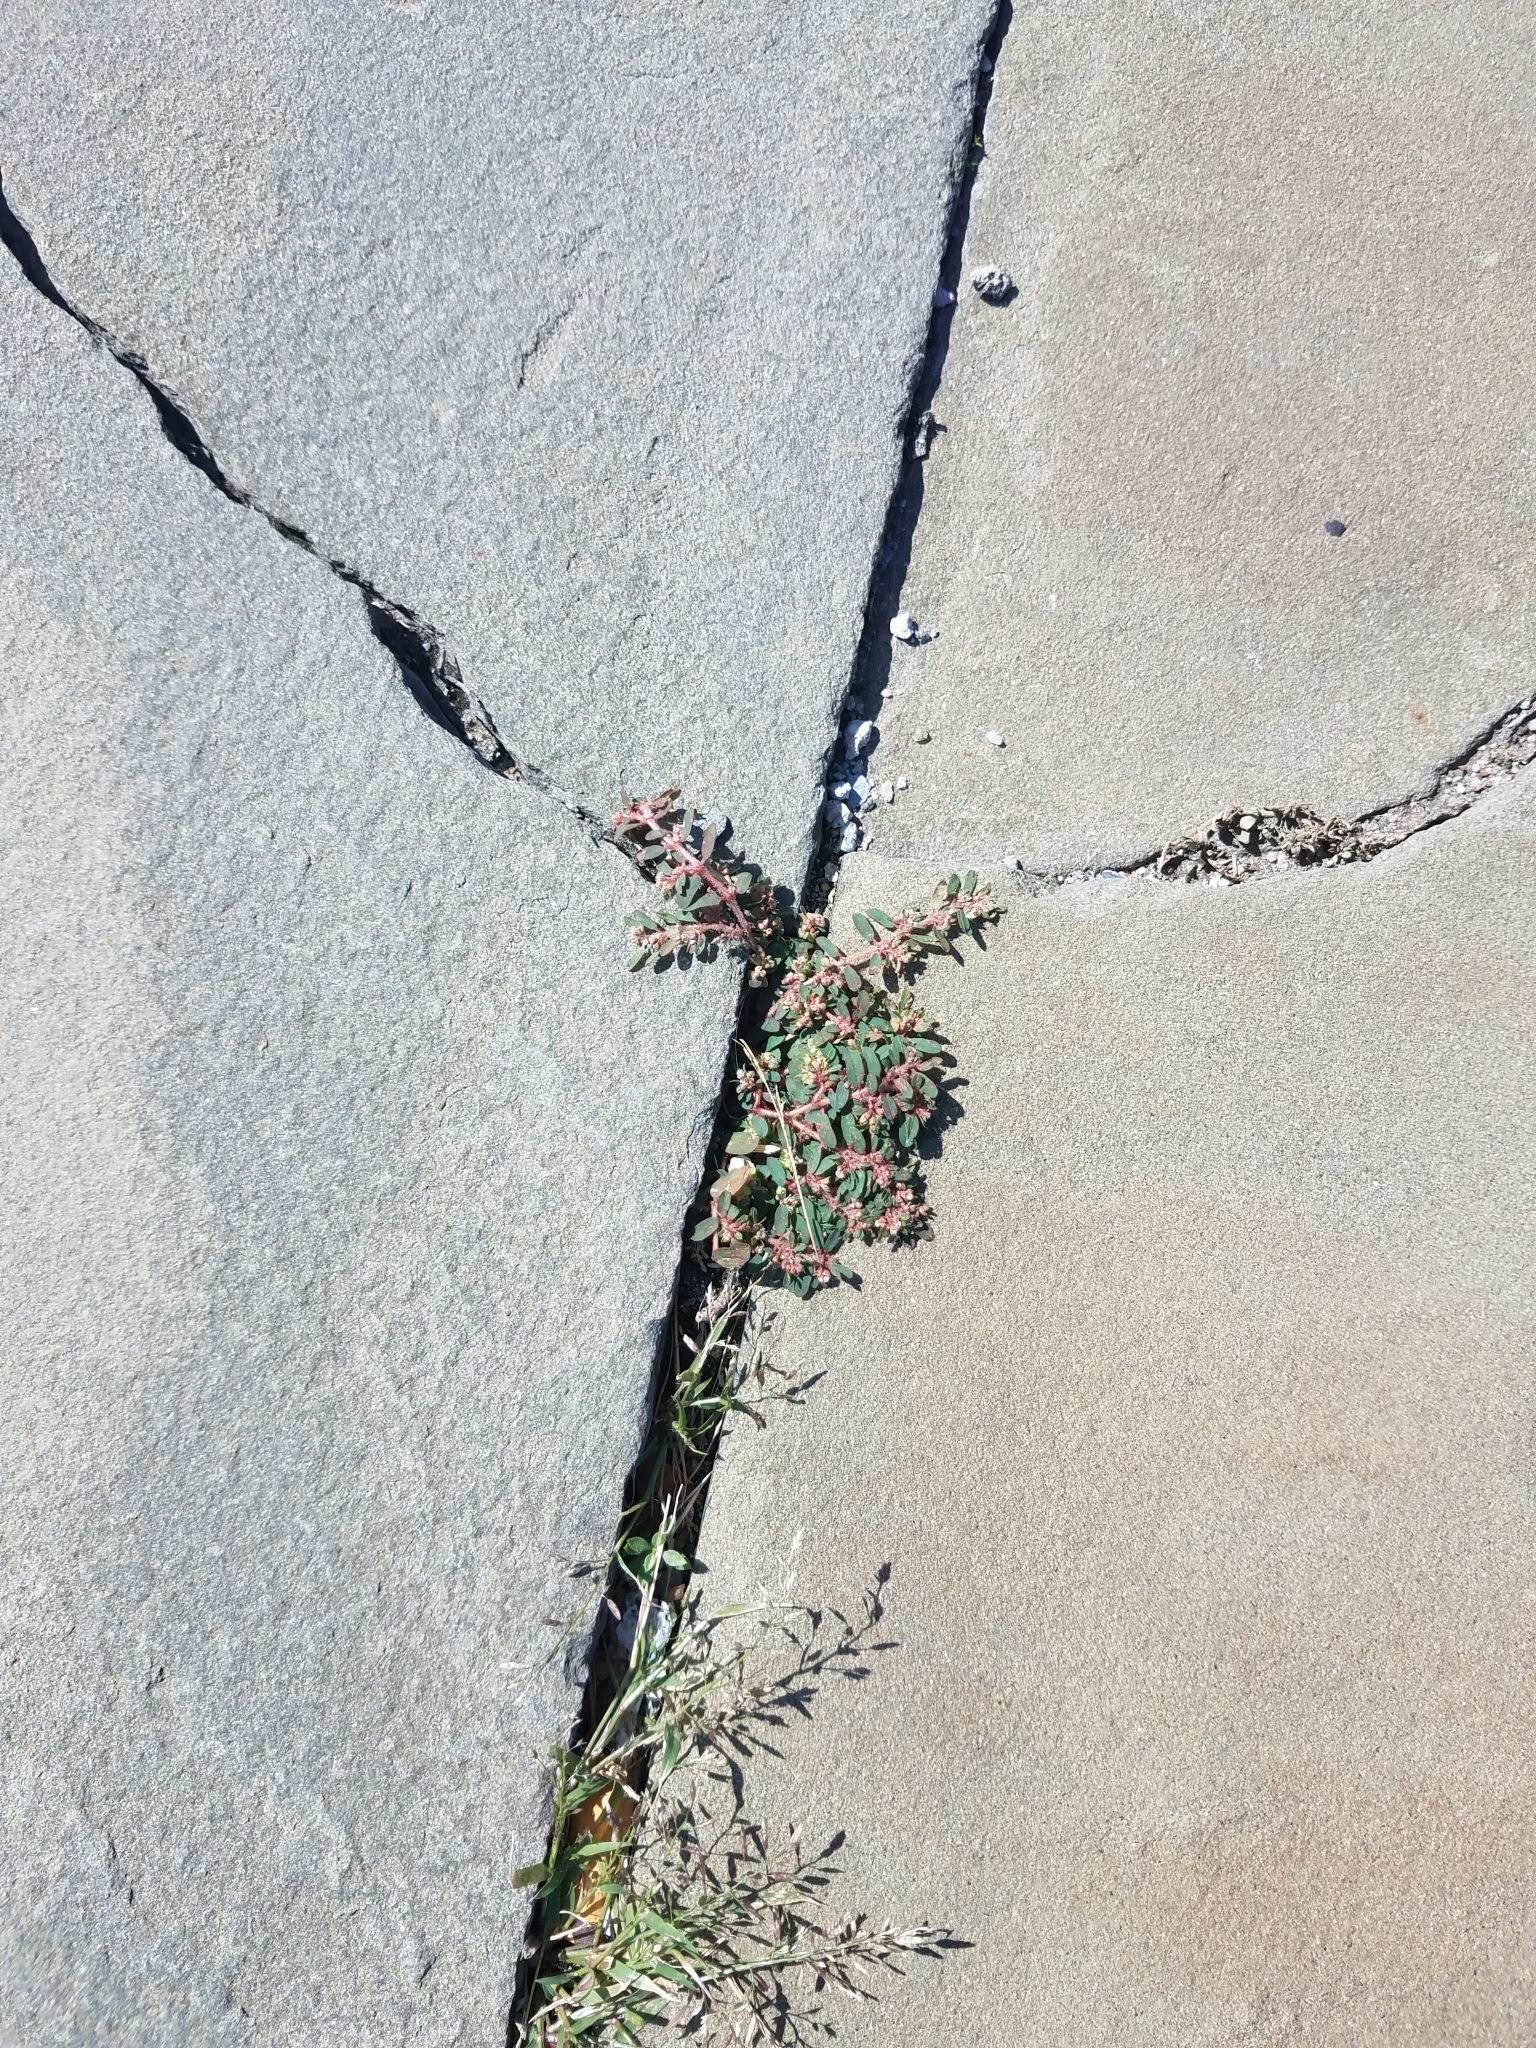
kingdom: Plantae
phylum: Tracheophyta
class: Magnoliopsida
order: Malpighiales
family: Euphorbiaceae
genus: Euphorbia
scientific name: Euphorbia maculata
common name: Spotted spurge
